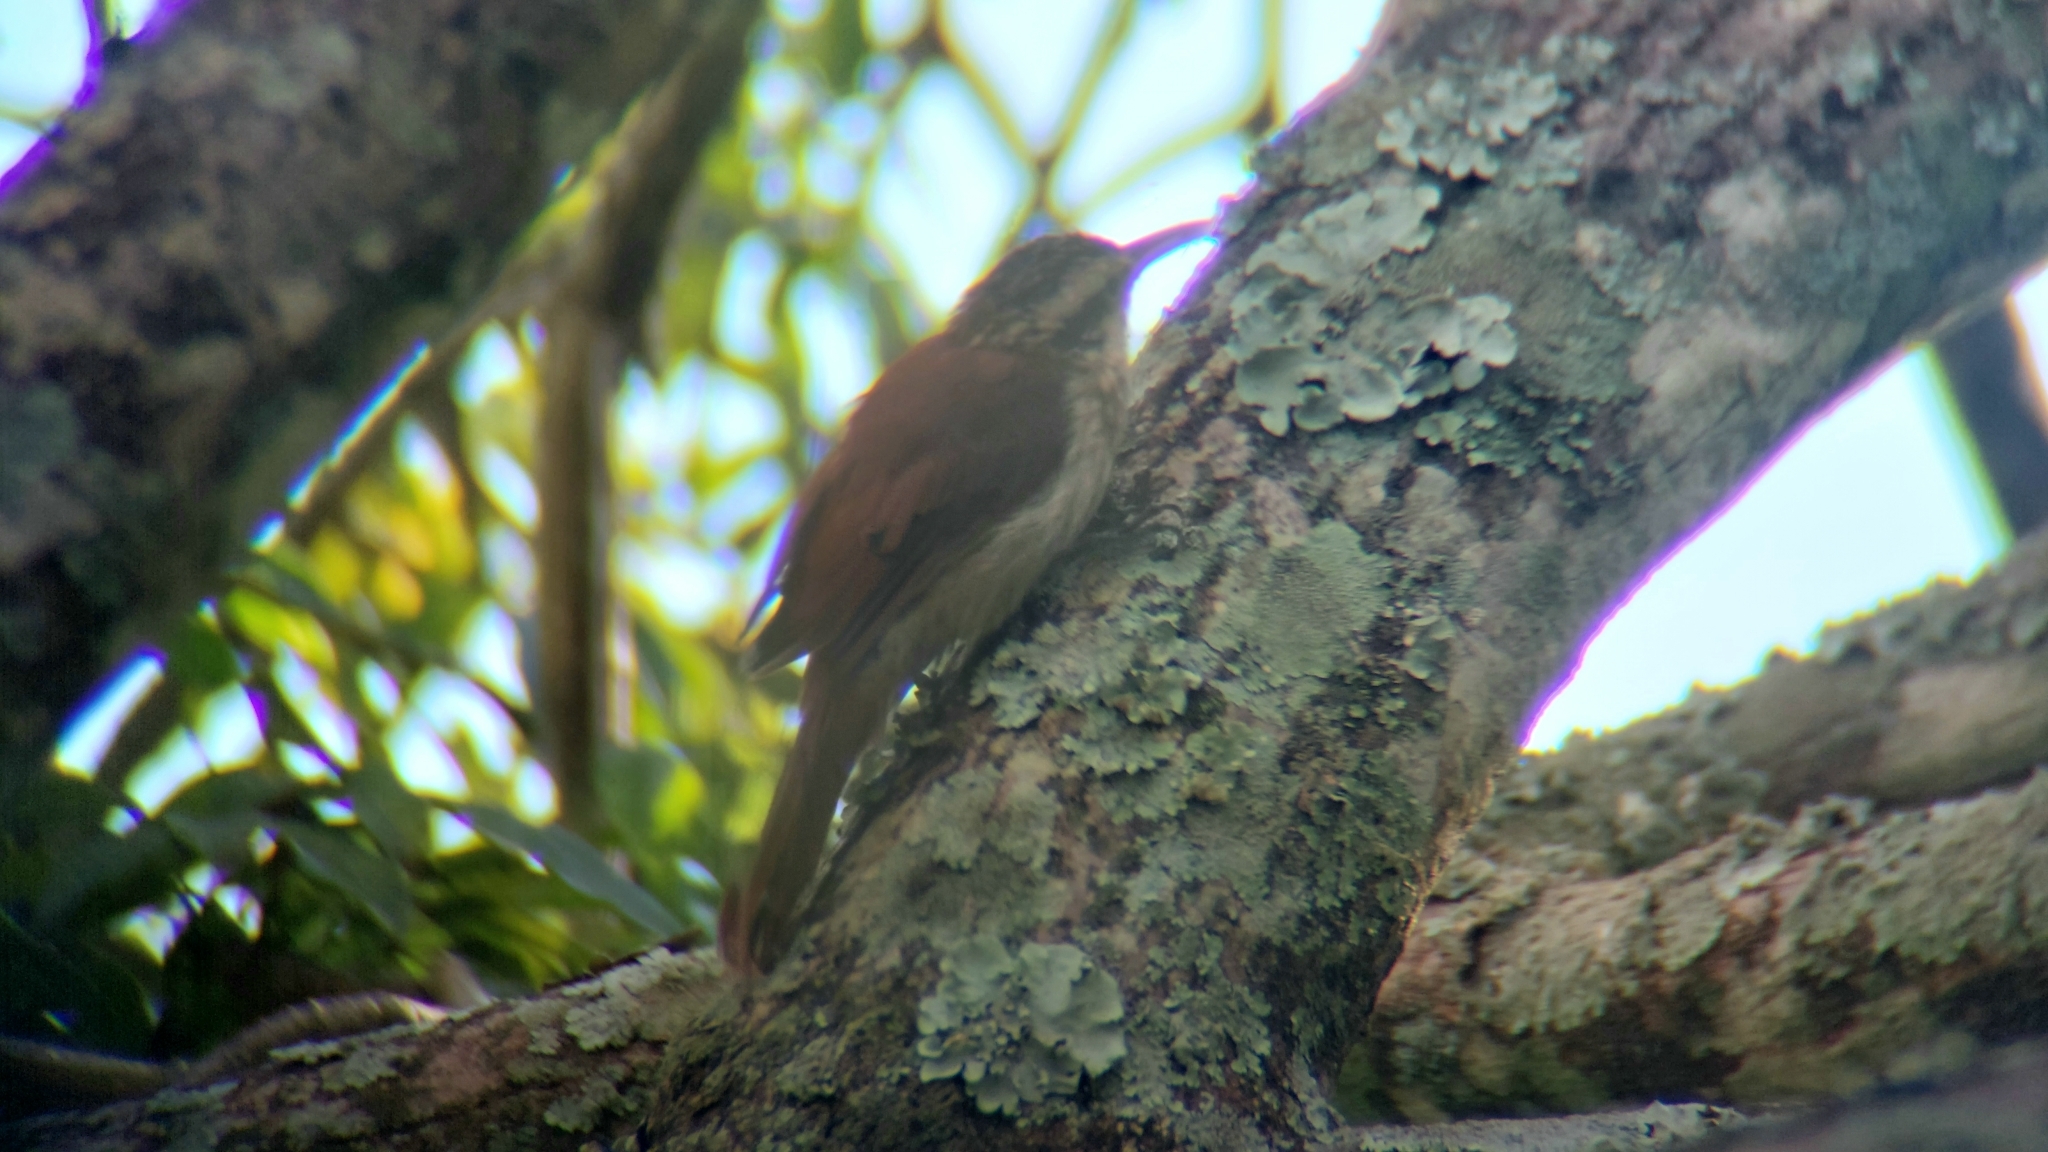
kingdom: Animalia
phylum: Chordata
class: Aves
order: Passeriformes
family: Furnariidae
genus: Lepidocolaptes
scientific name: Lepidocolaptes angustirostris
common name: Narrow-billed woodcreeper
